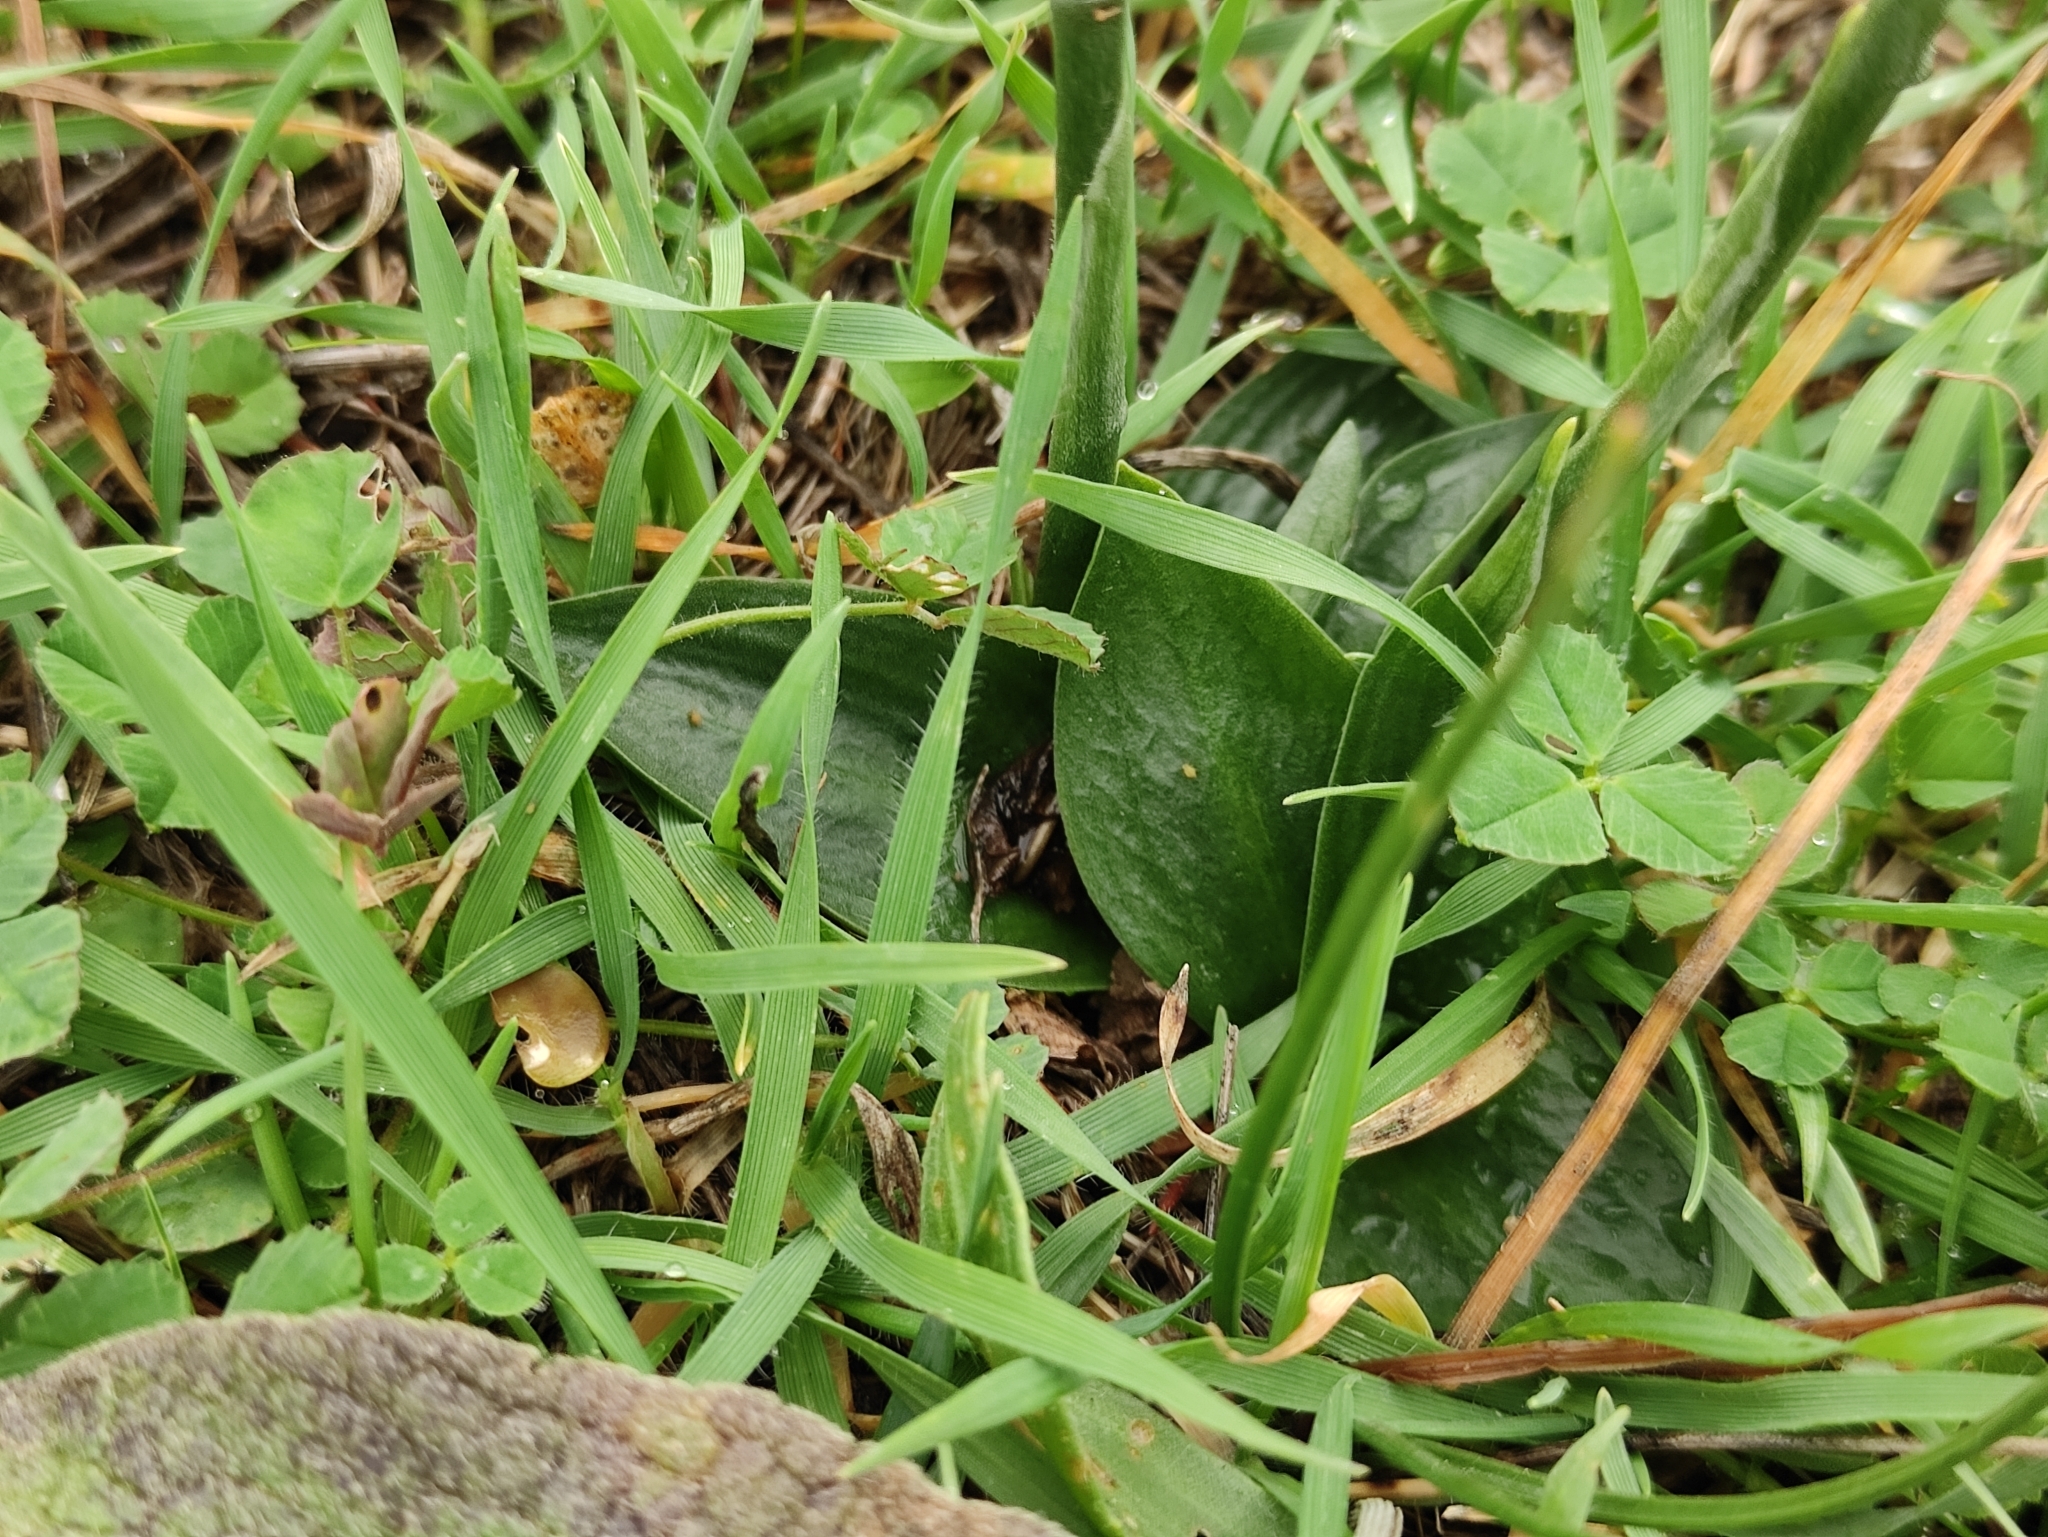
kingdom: Plantae
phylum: Tracheophyta
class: Liliopsida
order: Asparagales
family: Orchidaceae
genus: Spiranthes
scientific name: Spiranthes spiralis
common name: Autumn lady's-tresses
